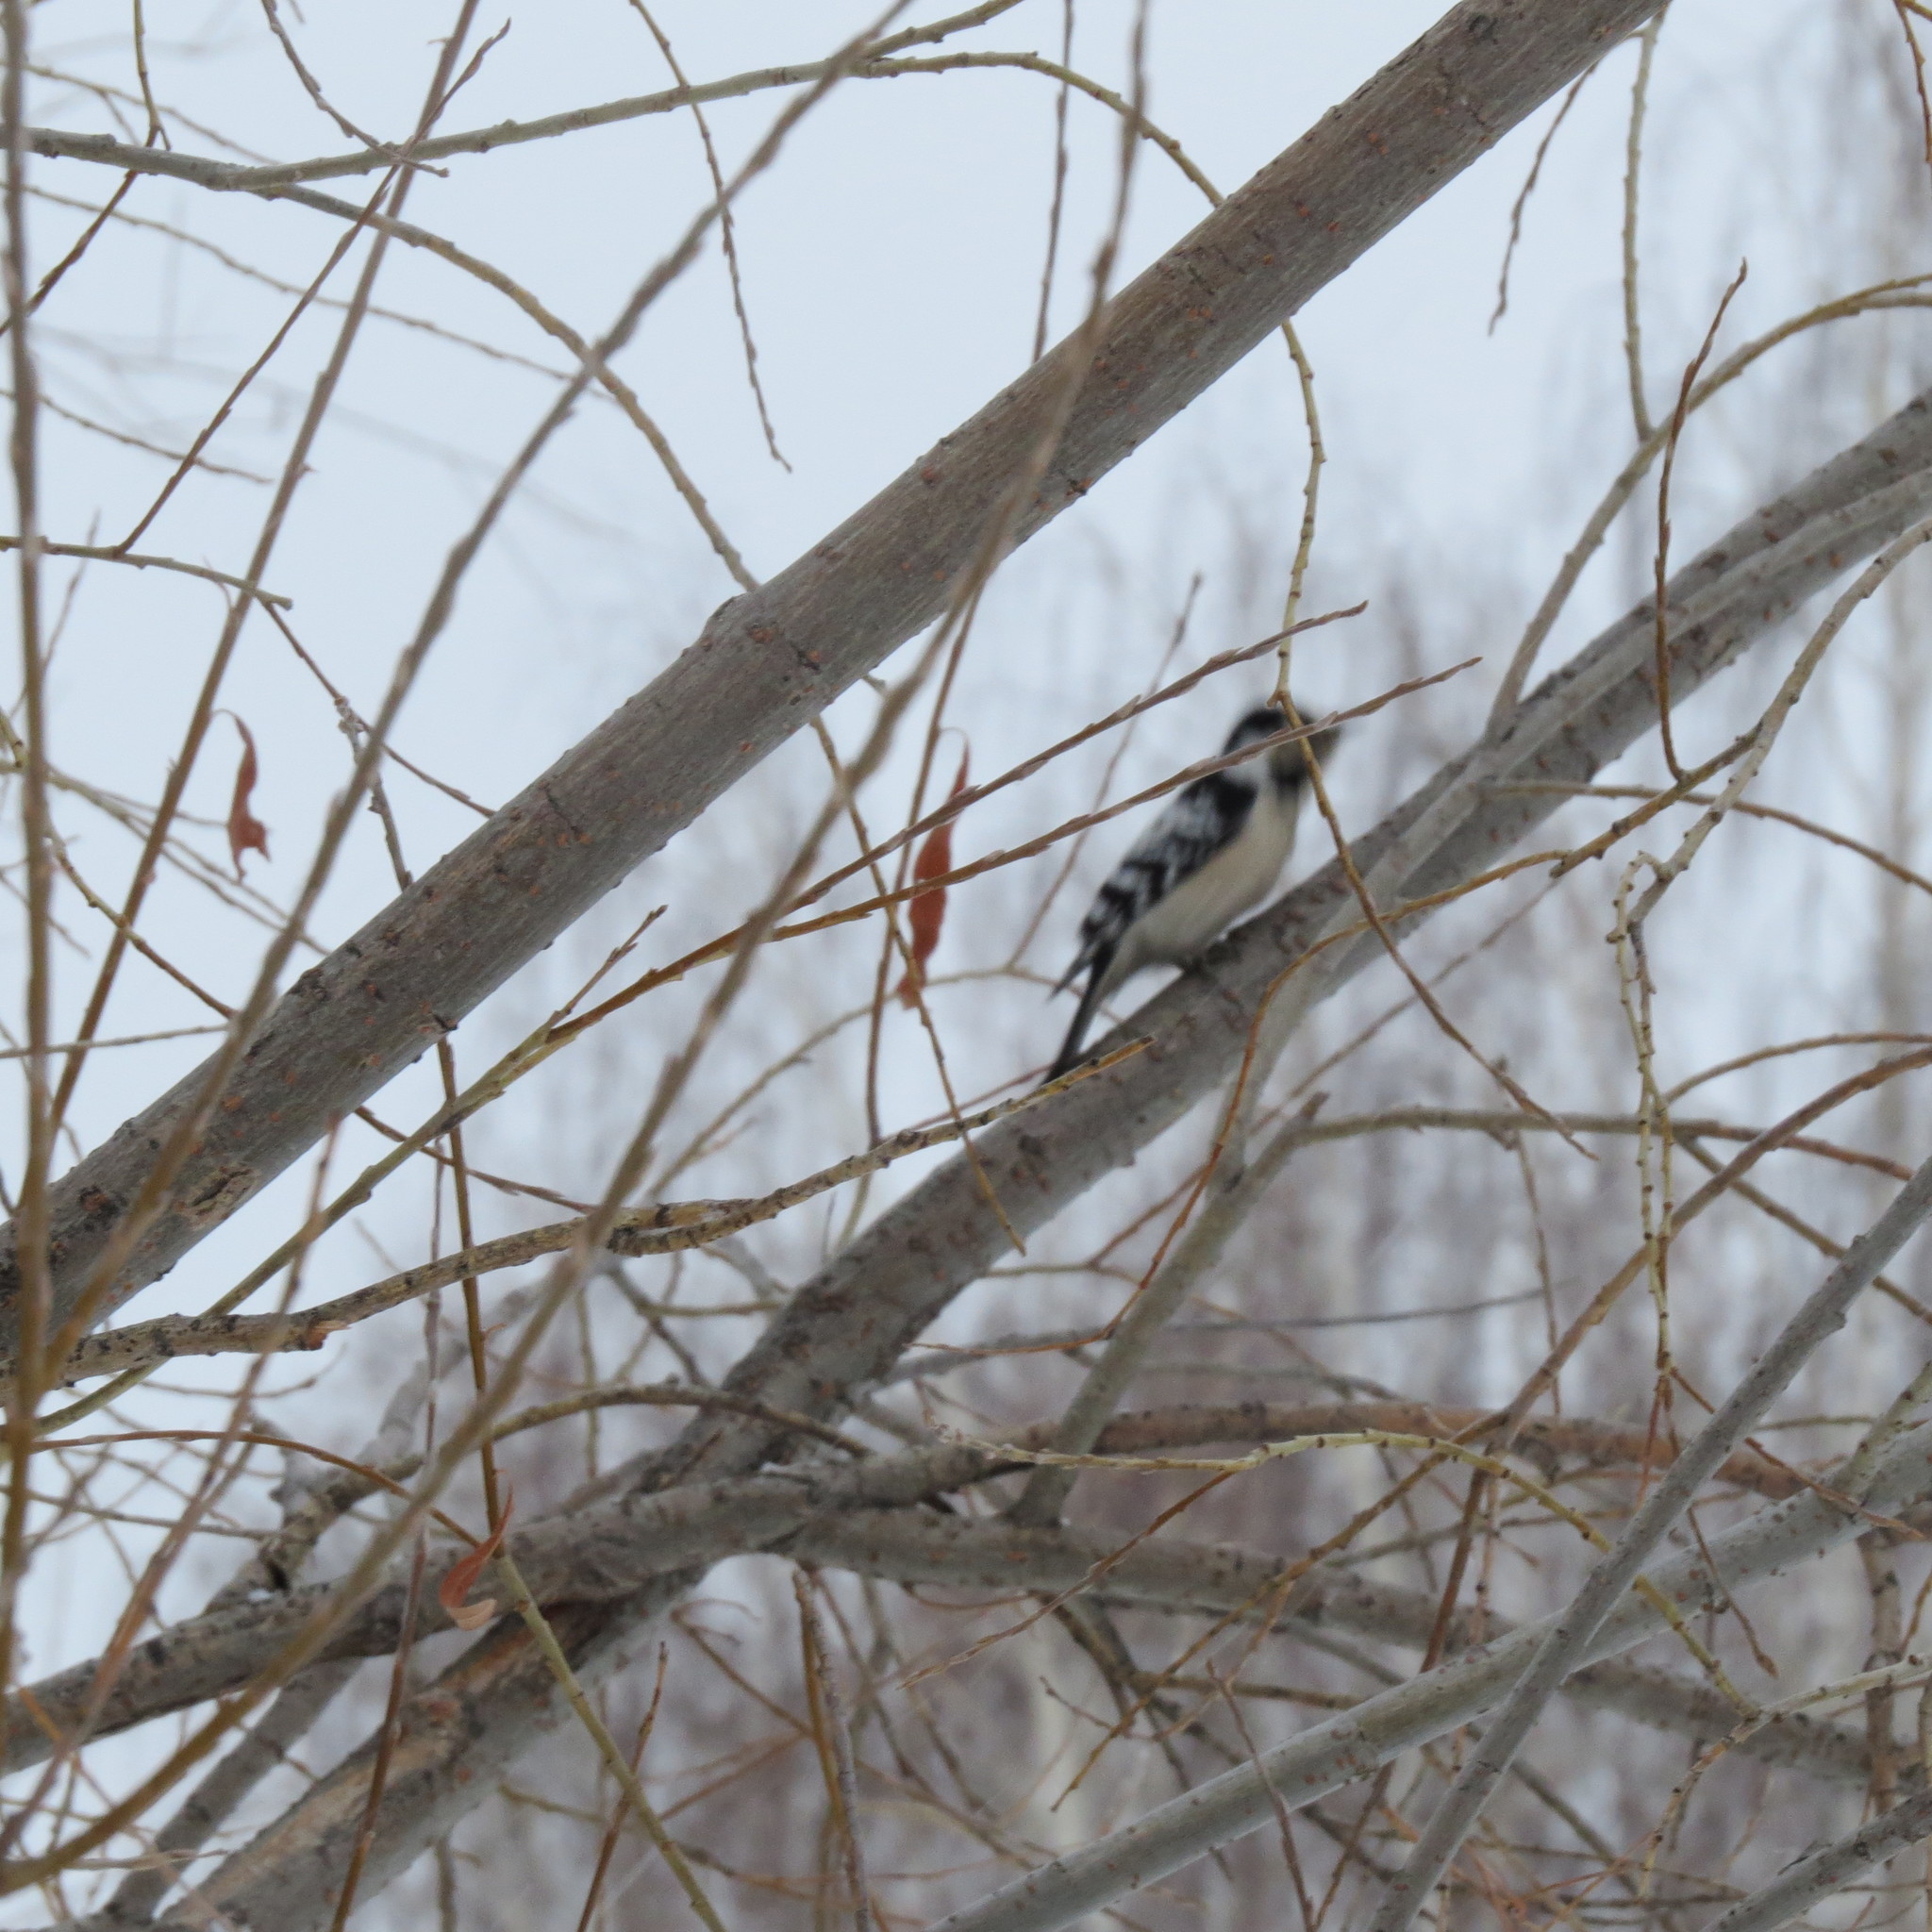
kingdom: Animalia
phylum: Chordata
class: Aves
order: Piciformes
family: Picidae
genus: Dryobates
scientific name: Dryobates minor
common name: Lesser spotted woodpecker
